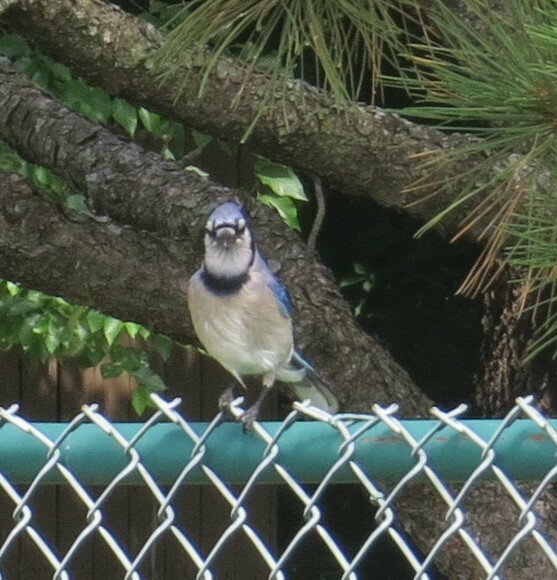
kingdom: Animalia
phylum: Chordata
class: Aves
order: Passeriformes
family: Corvidae
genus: Cyanocitta
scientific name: Cyanocitta cristata
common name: Blue jay
